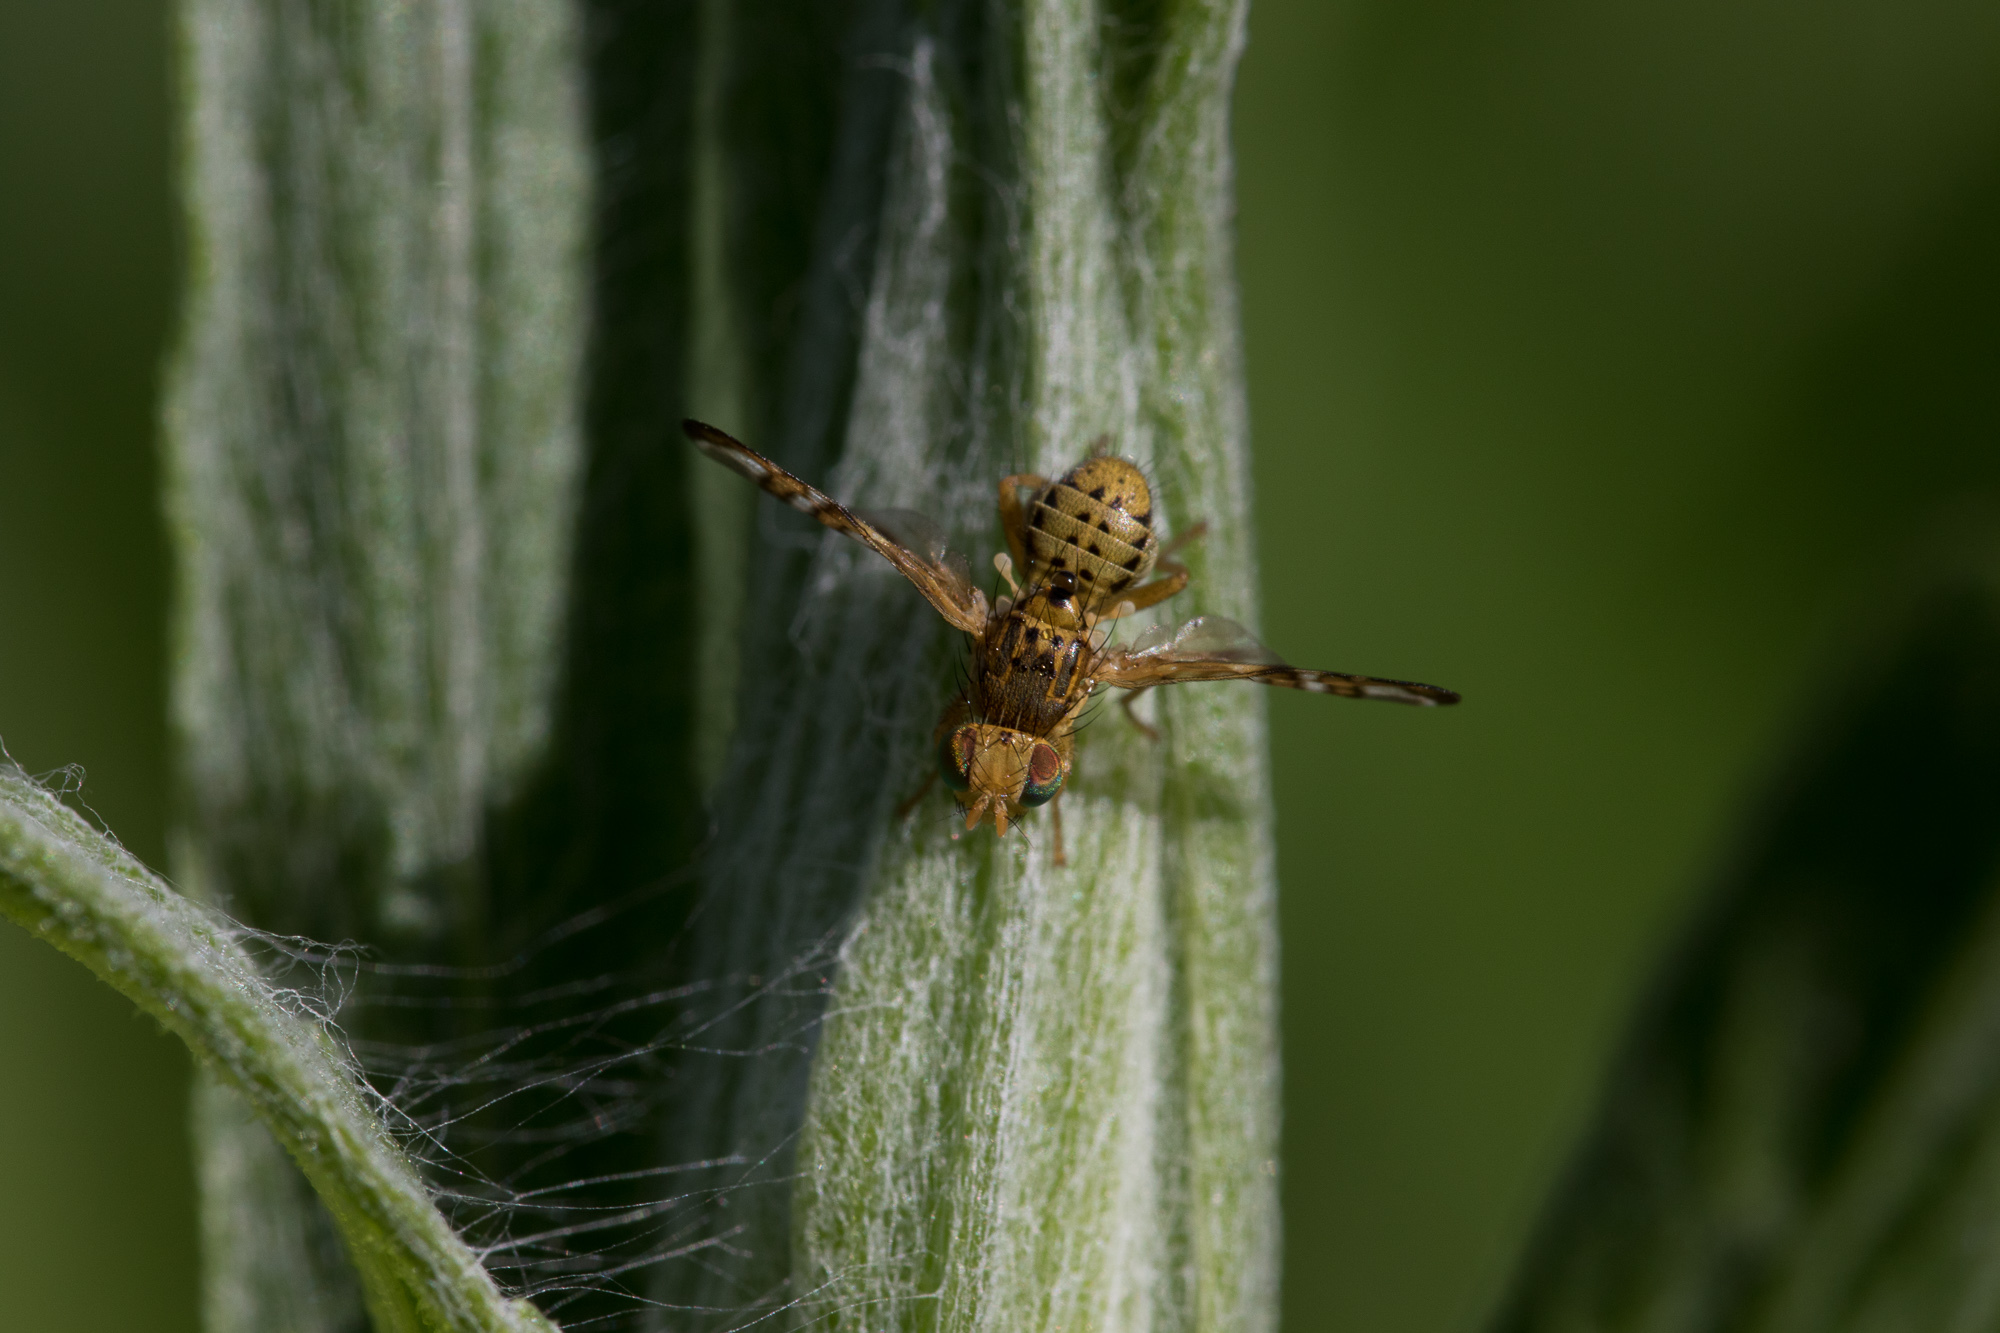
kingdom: Animalia
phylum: Arthropoda
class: Insecta
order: Diptera
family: Tephritidae
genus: Chaetostomella
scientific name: Chaetostomella cylindrica
